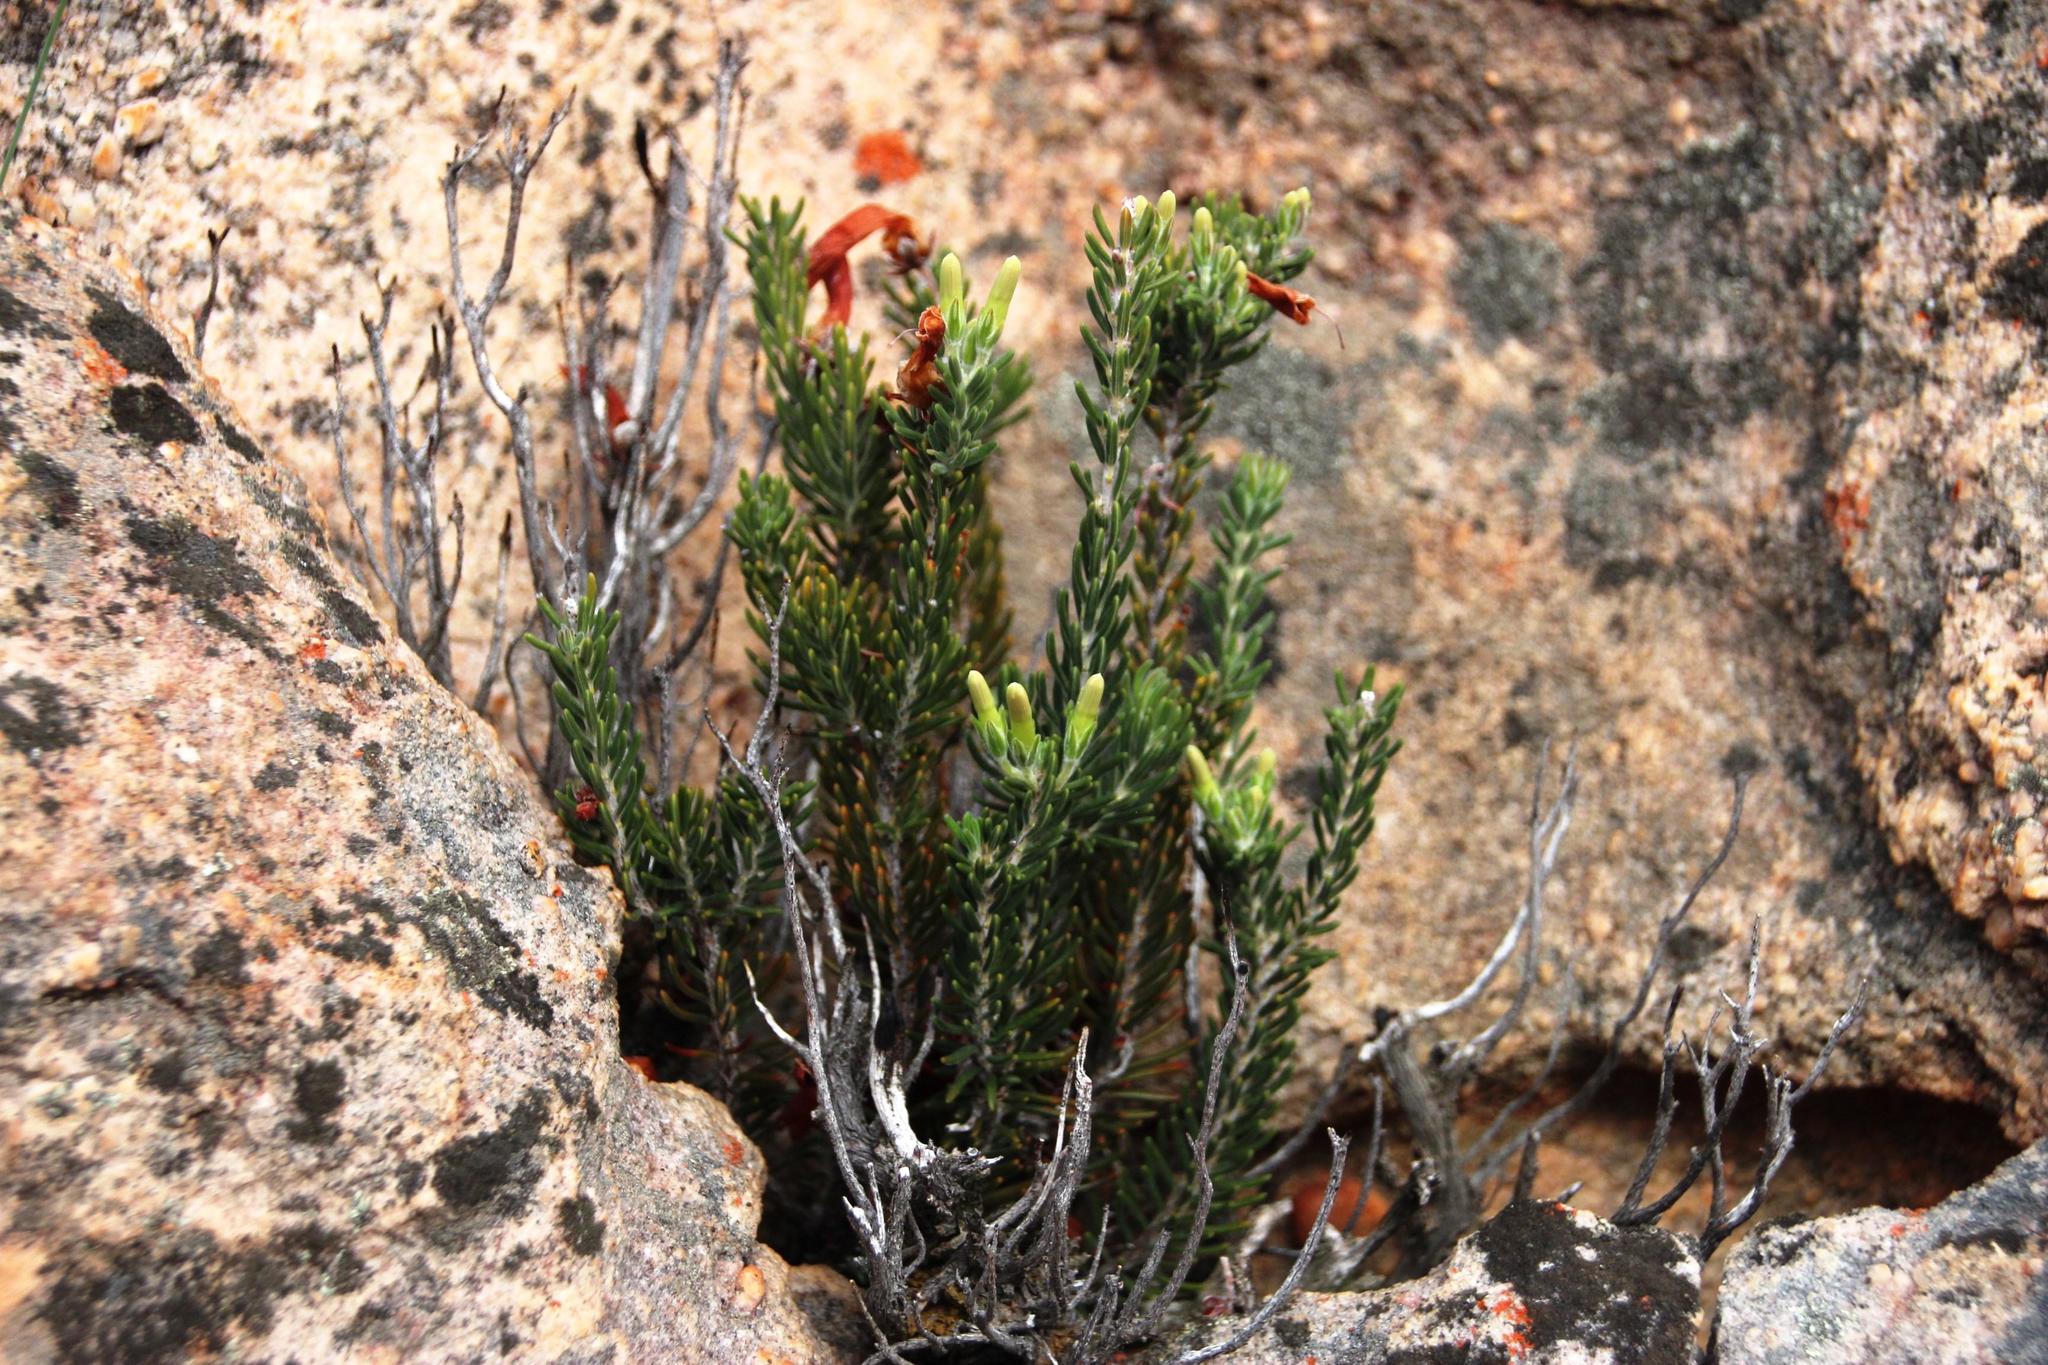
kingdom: Plantae
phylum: Tracheophyta
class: Magnoliopsida
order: Ericales
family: Ericaceae
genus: Erica
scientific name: Erica maximiliani
